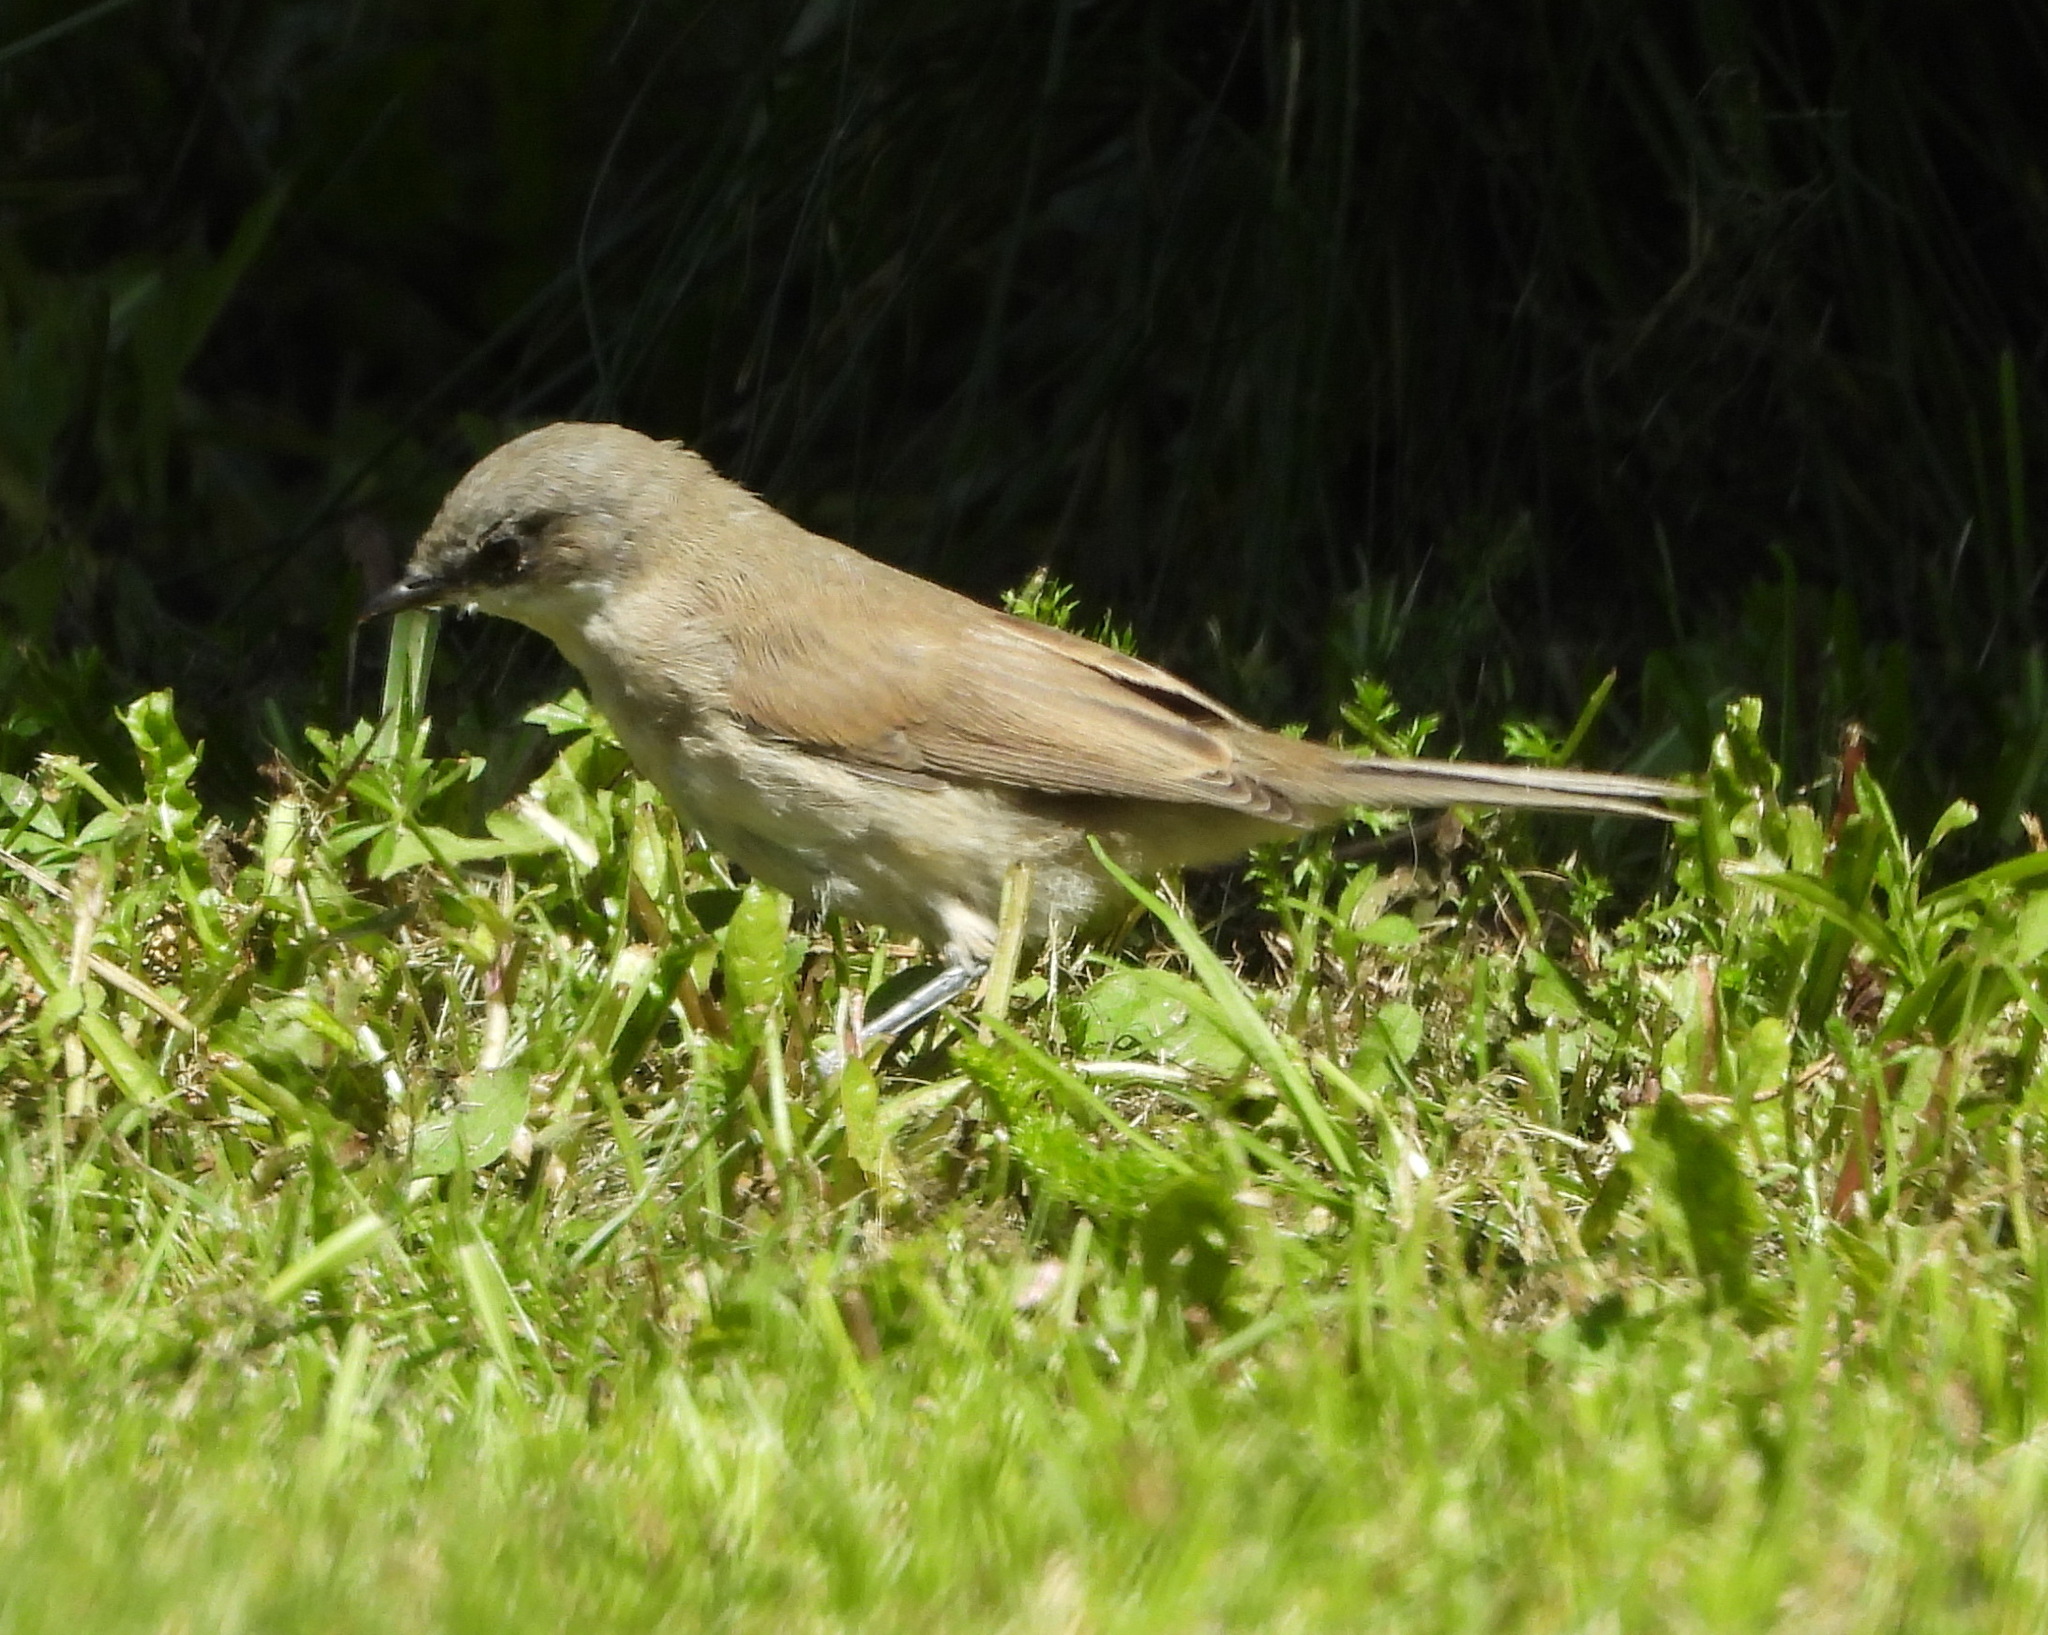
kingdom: Animalia
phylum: Chordata
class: Aves
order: Passeriformes
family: Sylviidae
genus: Sylvia
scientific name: Sylvia curruca
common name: Lesser whitethroat
